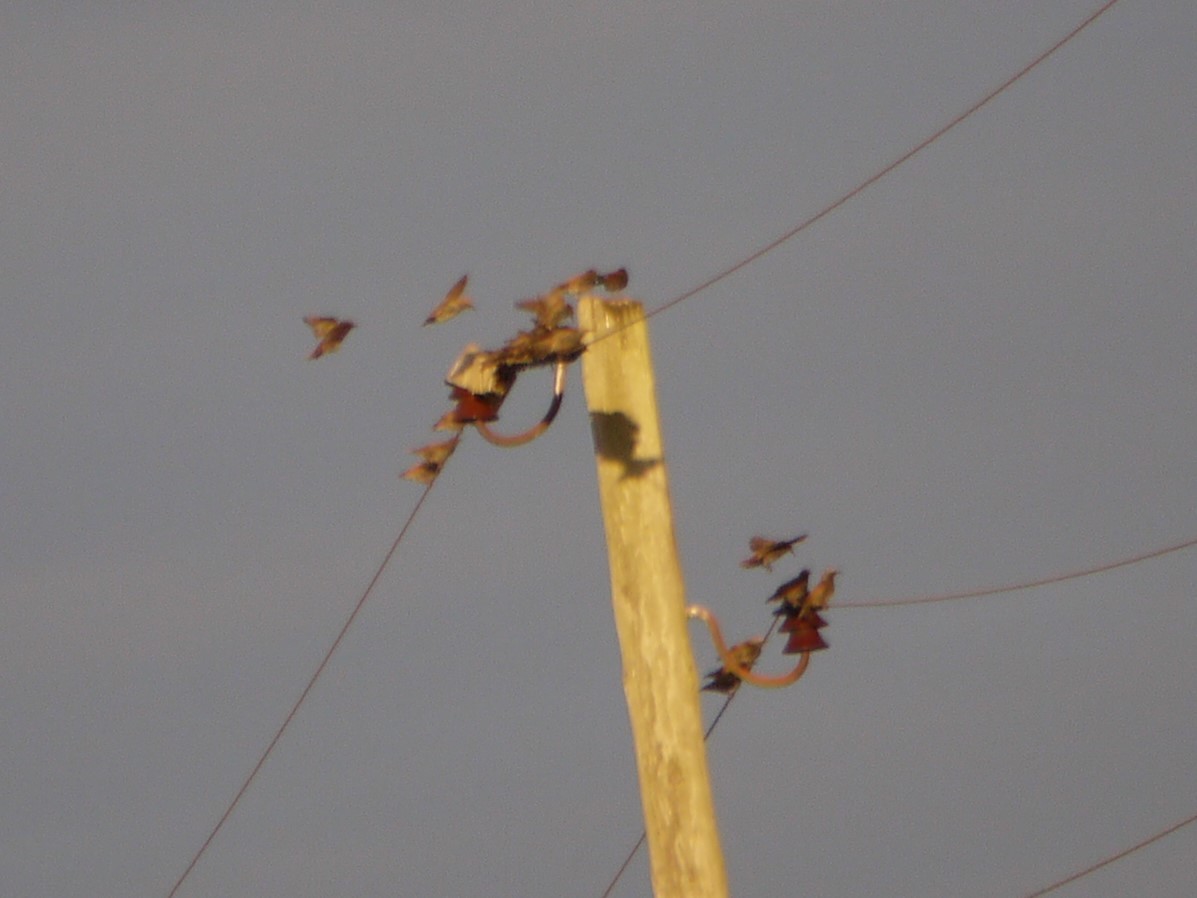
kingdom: Animalia
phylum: Chordata
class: Aves
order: Passeriformes
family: Sturnidae
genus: Sturnus
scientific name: Sturnus vulgaris
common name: Common starling
